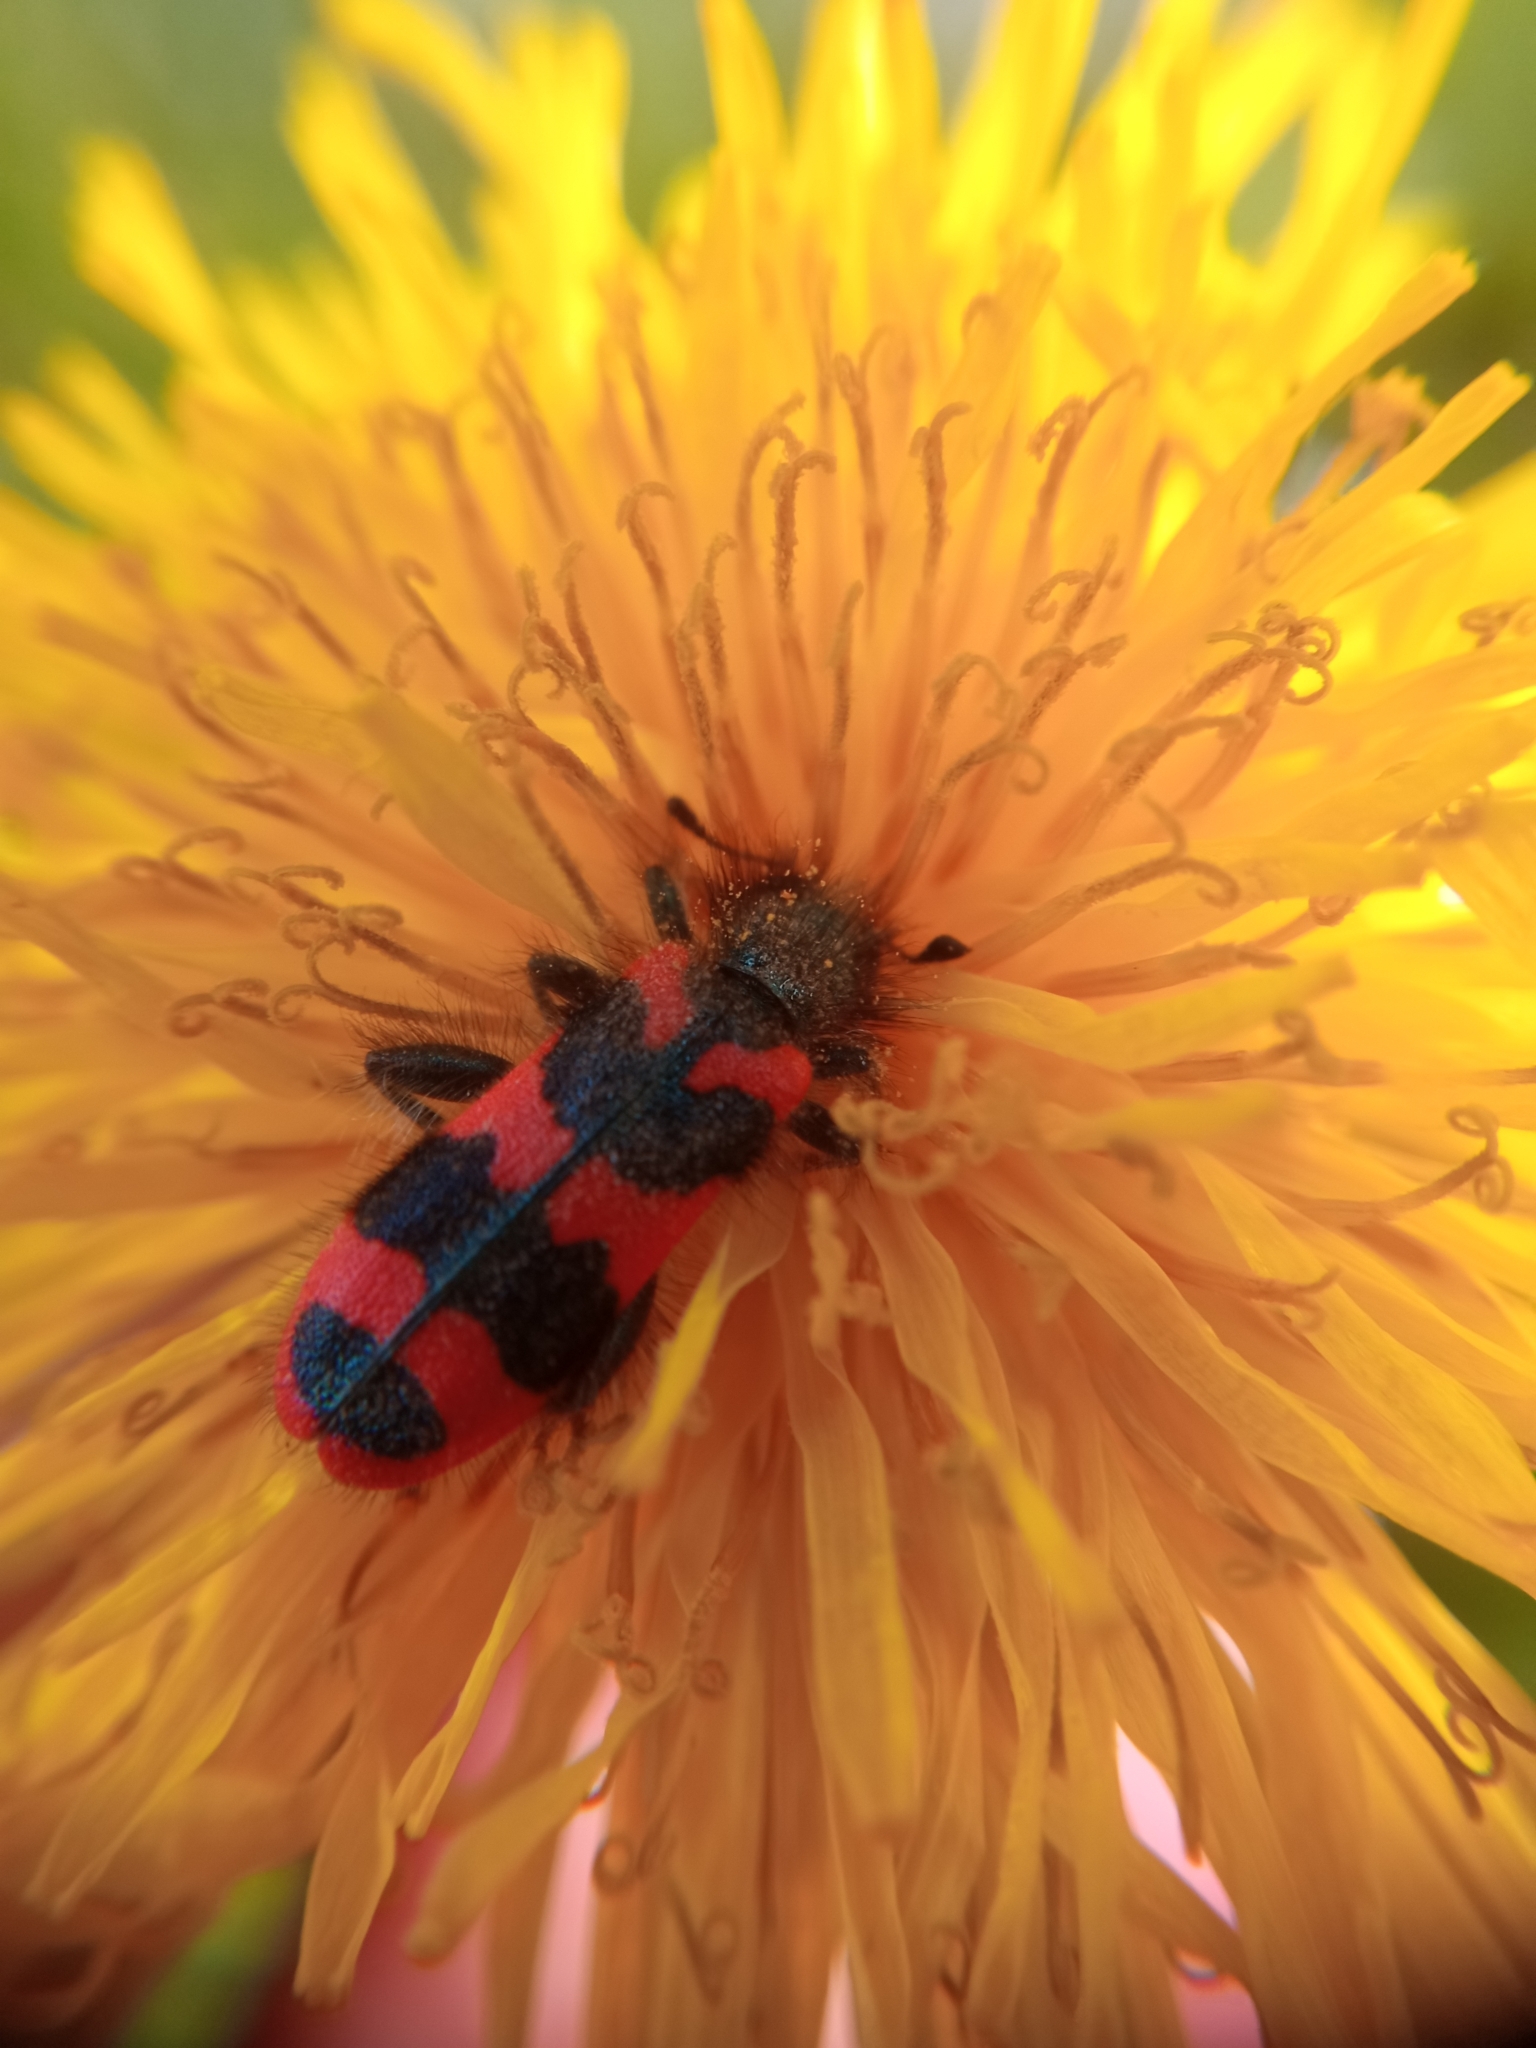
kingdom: Animalia
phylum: Arthropoda
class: Insecta
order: Coleoptera
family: Cleridae
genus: Trichodes
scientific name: Trichodes alvearius
